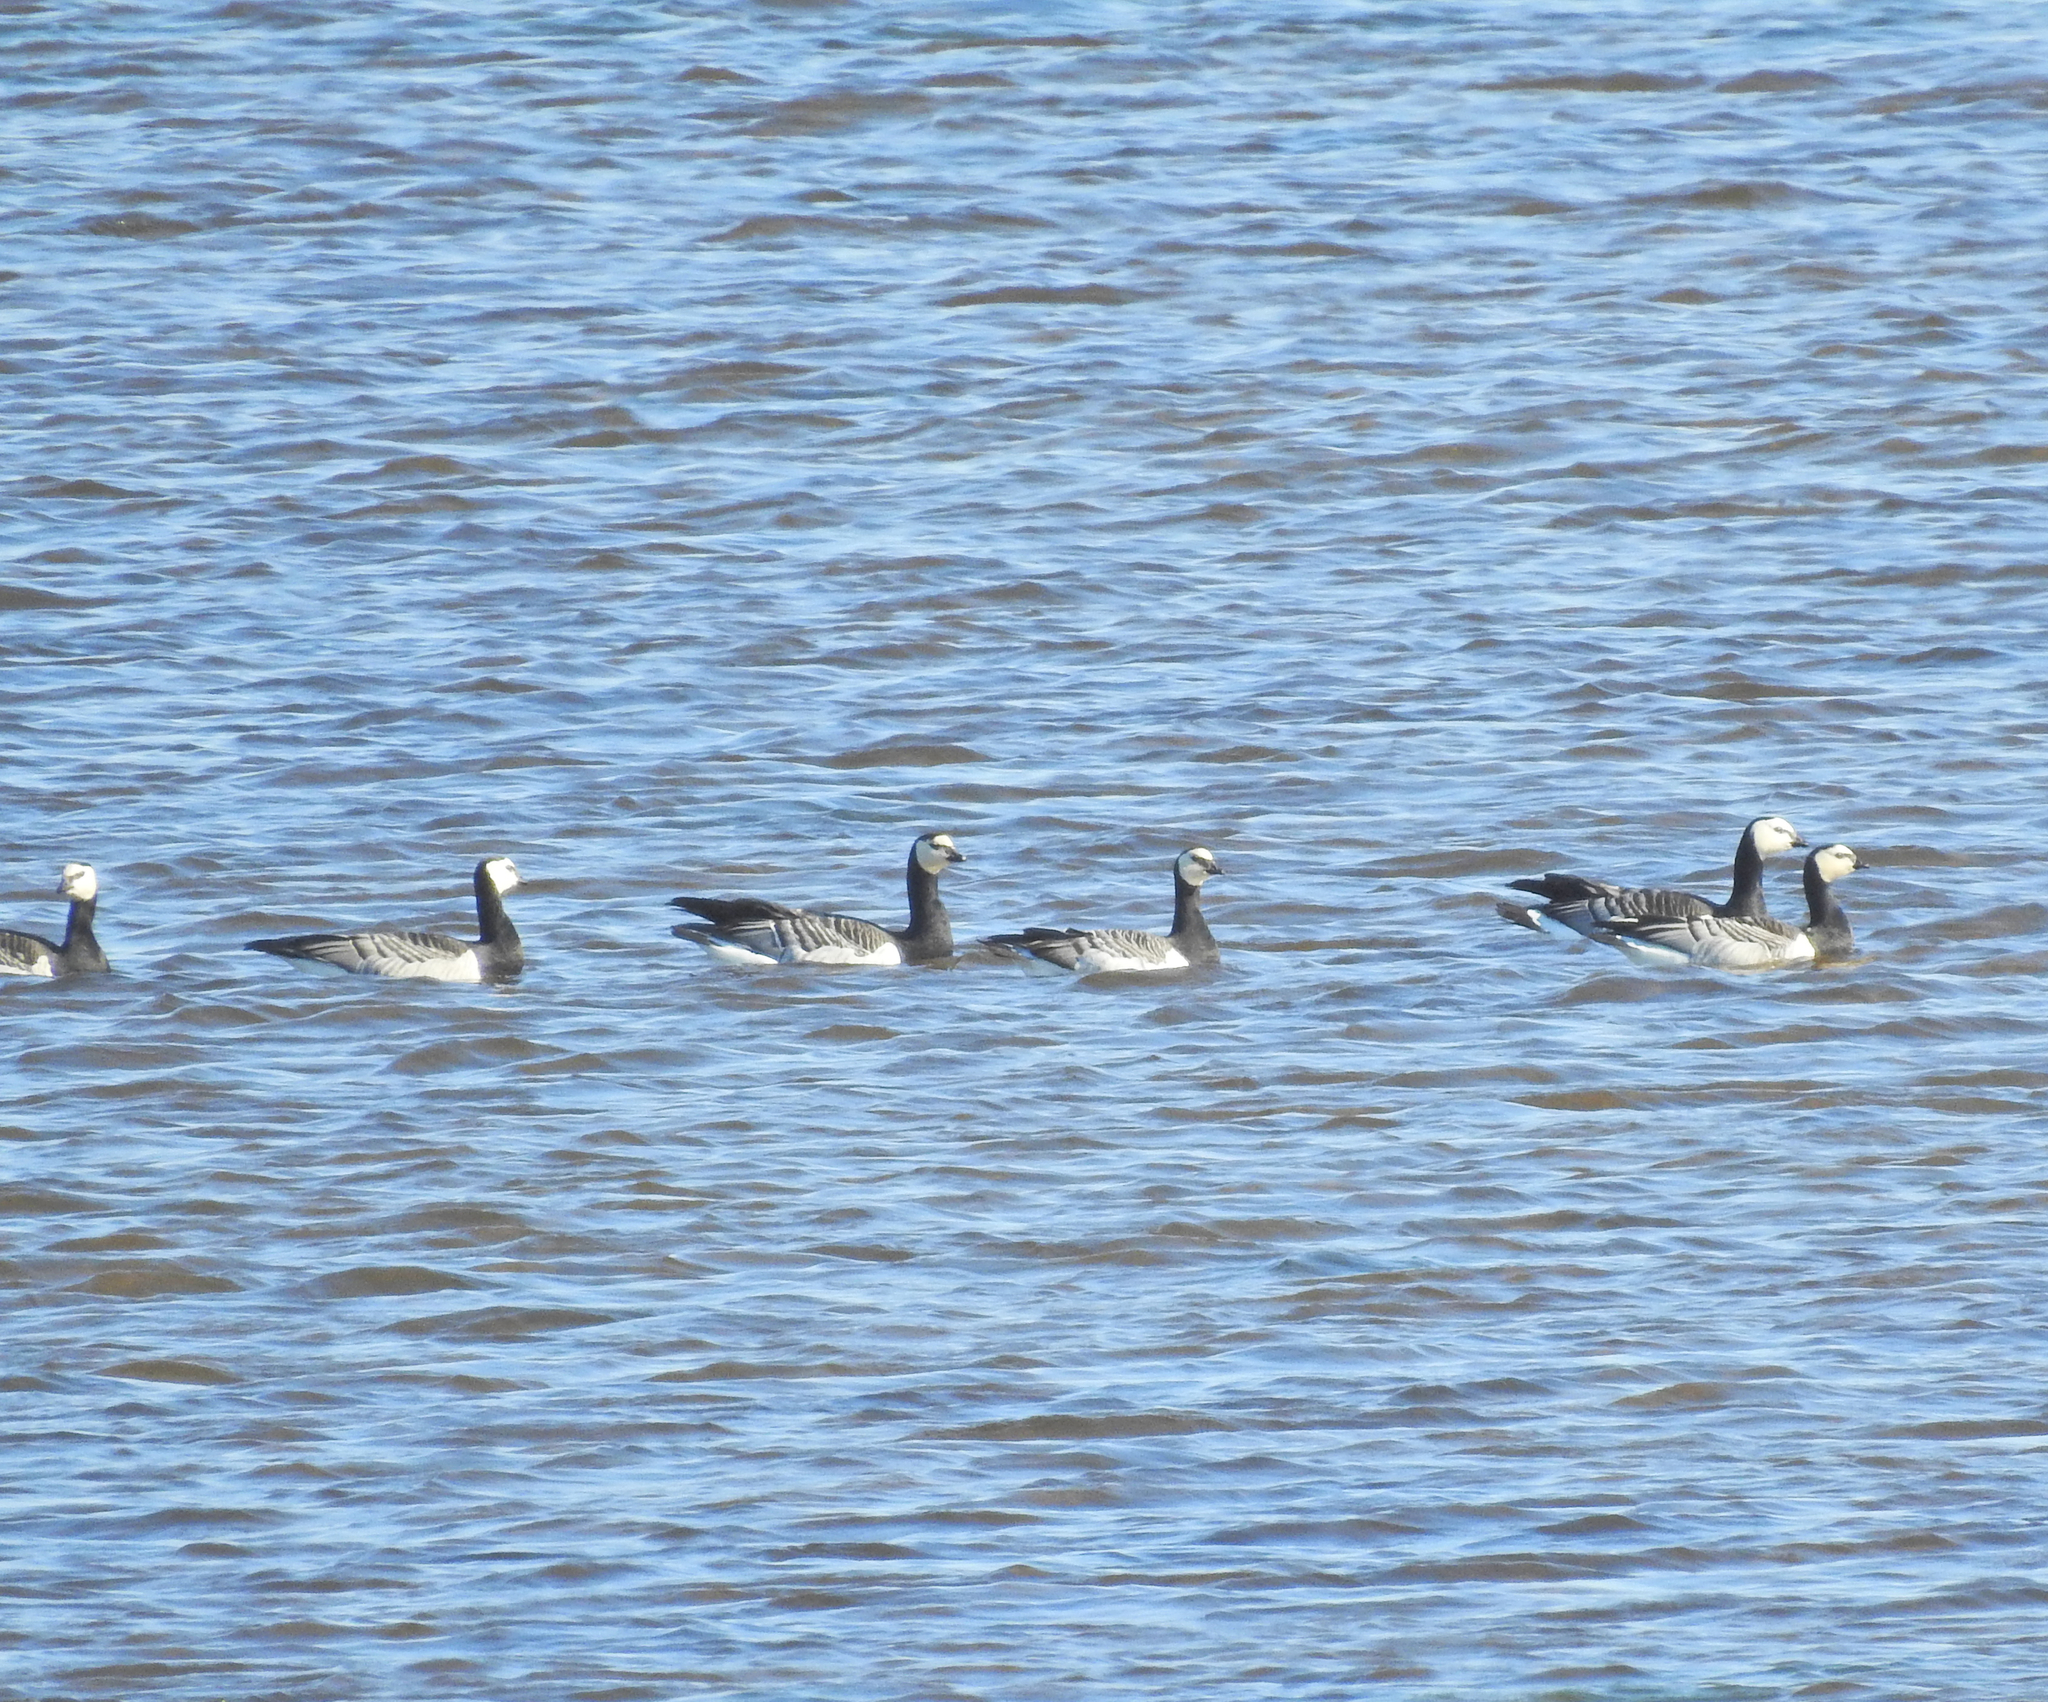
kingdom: Animalia
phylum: Chordata
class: Aves
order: Anseriformes
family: Anatidae
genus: Branta
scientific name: Branta leucopsis
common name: Barnacle goose
